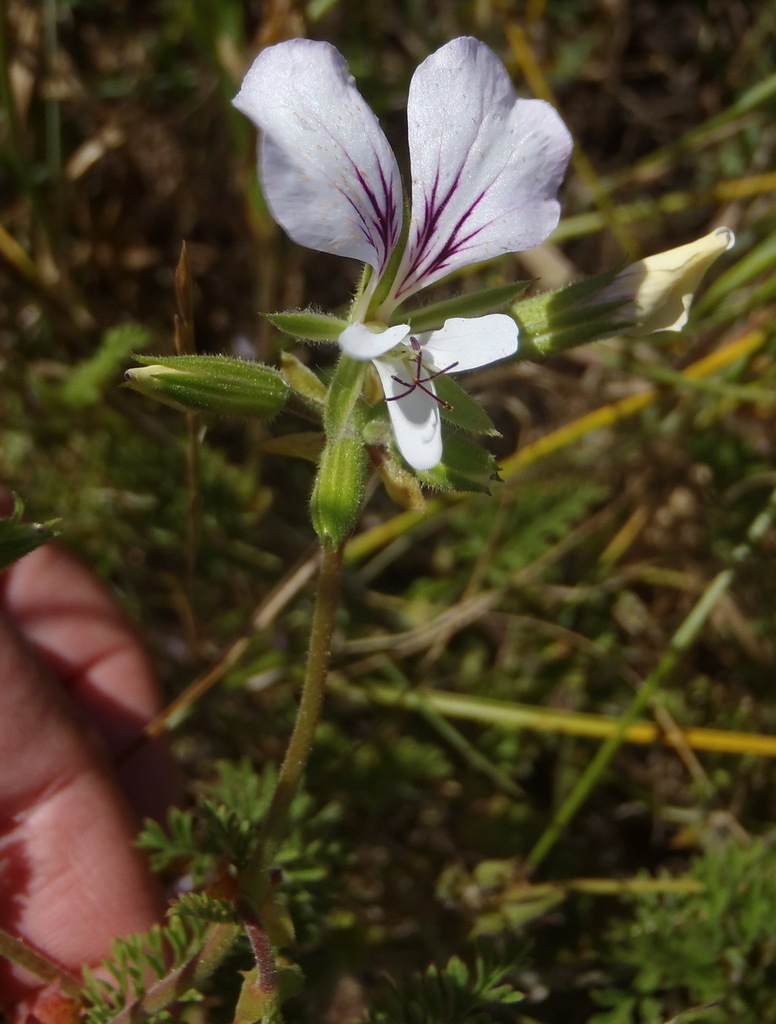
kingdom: Plantae
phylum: Tracheophyta
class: Magnoliopsida
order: Geraniales
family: Geraniaceae
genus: Pelargonium
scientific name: Pelargonium myrrhifolium
